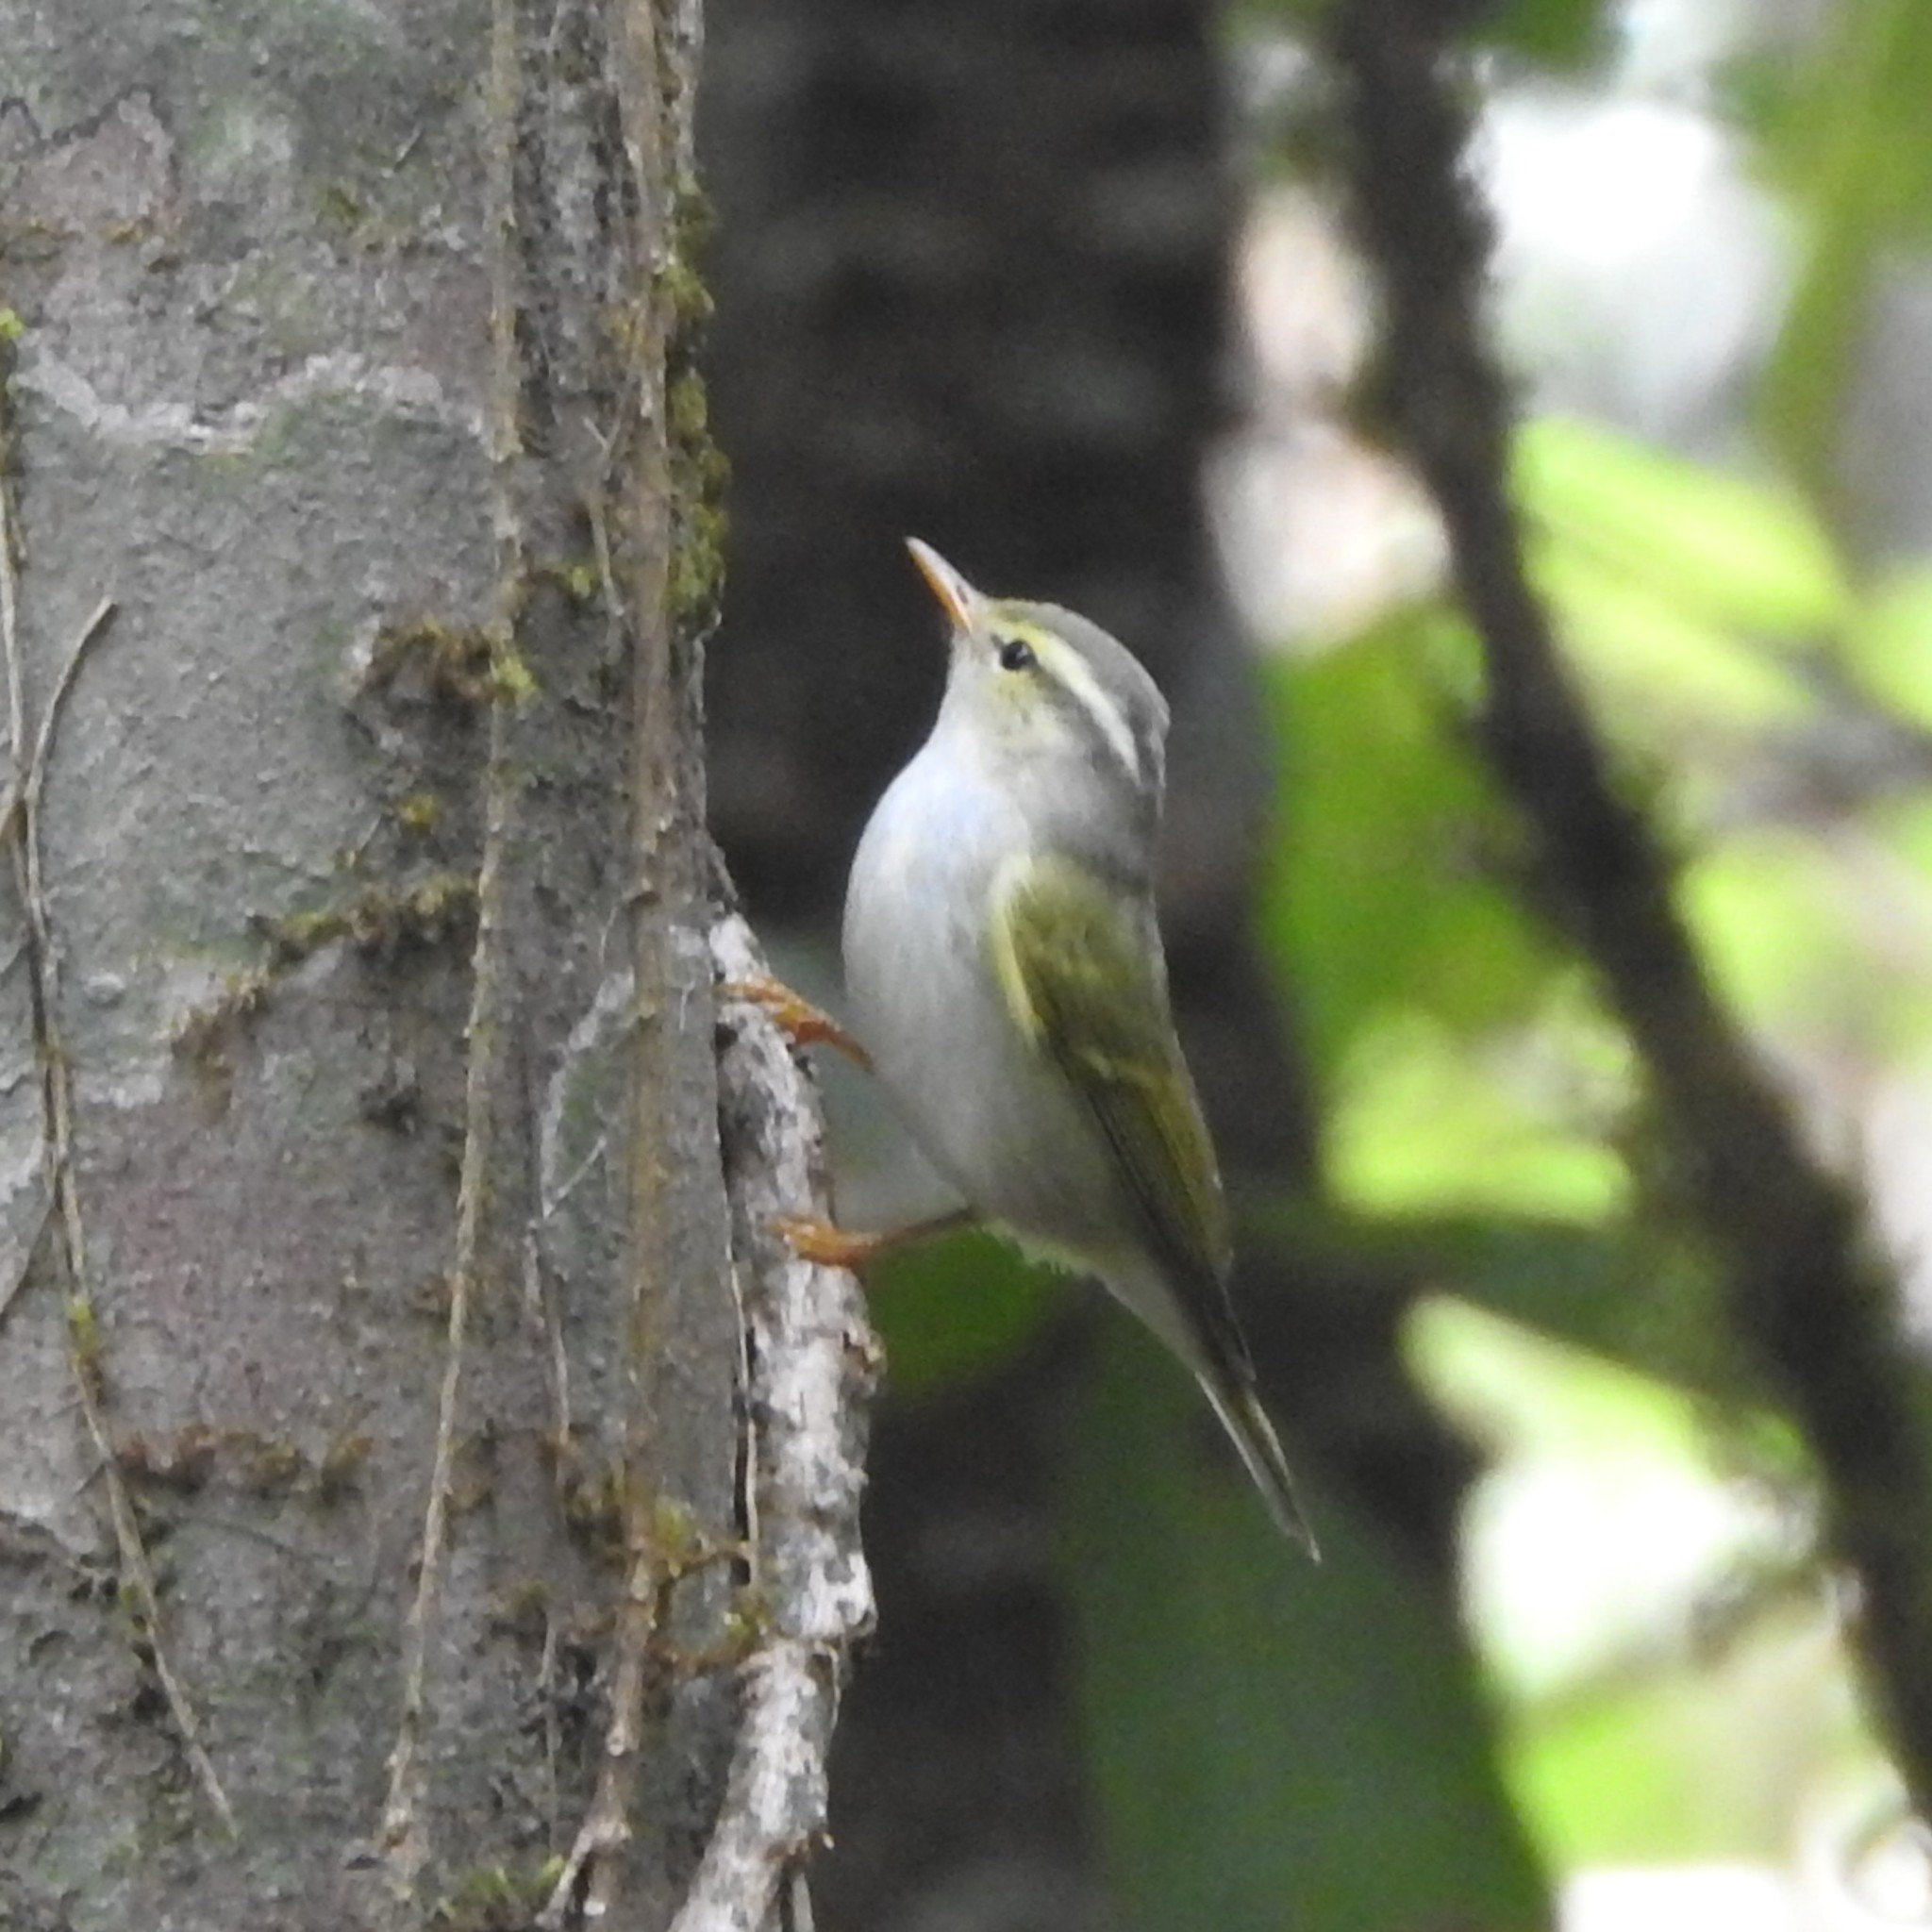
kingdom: Animalia
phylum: Chordata
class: Aves
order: Passeriformes
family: Phylloscopidae
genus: Phylloscopus
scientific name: Phylloscopus occipitalis
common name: Western crowned warbler
